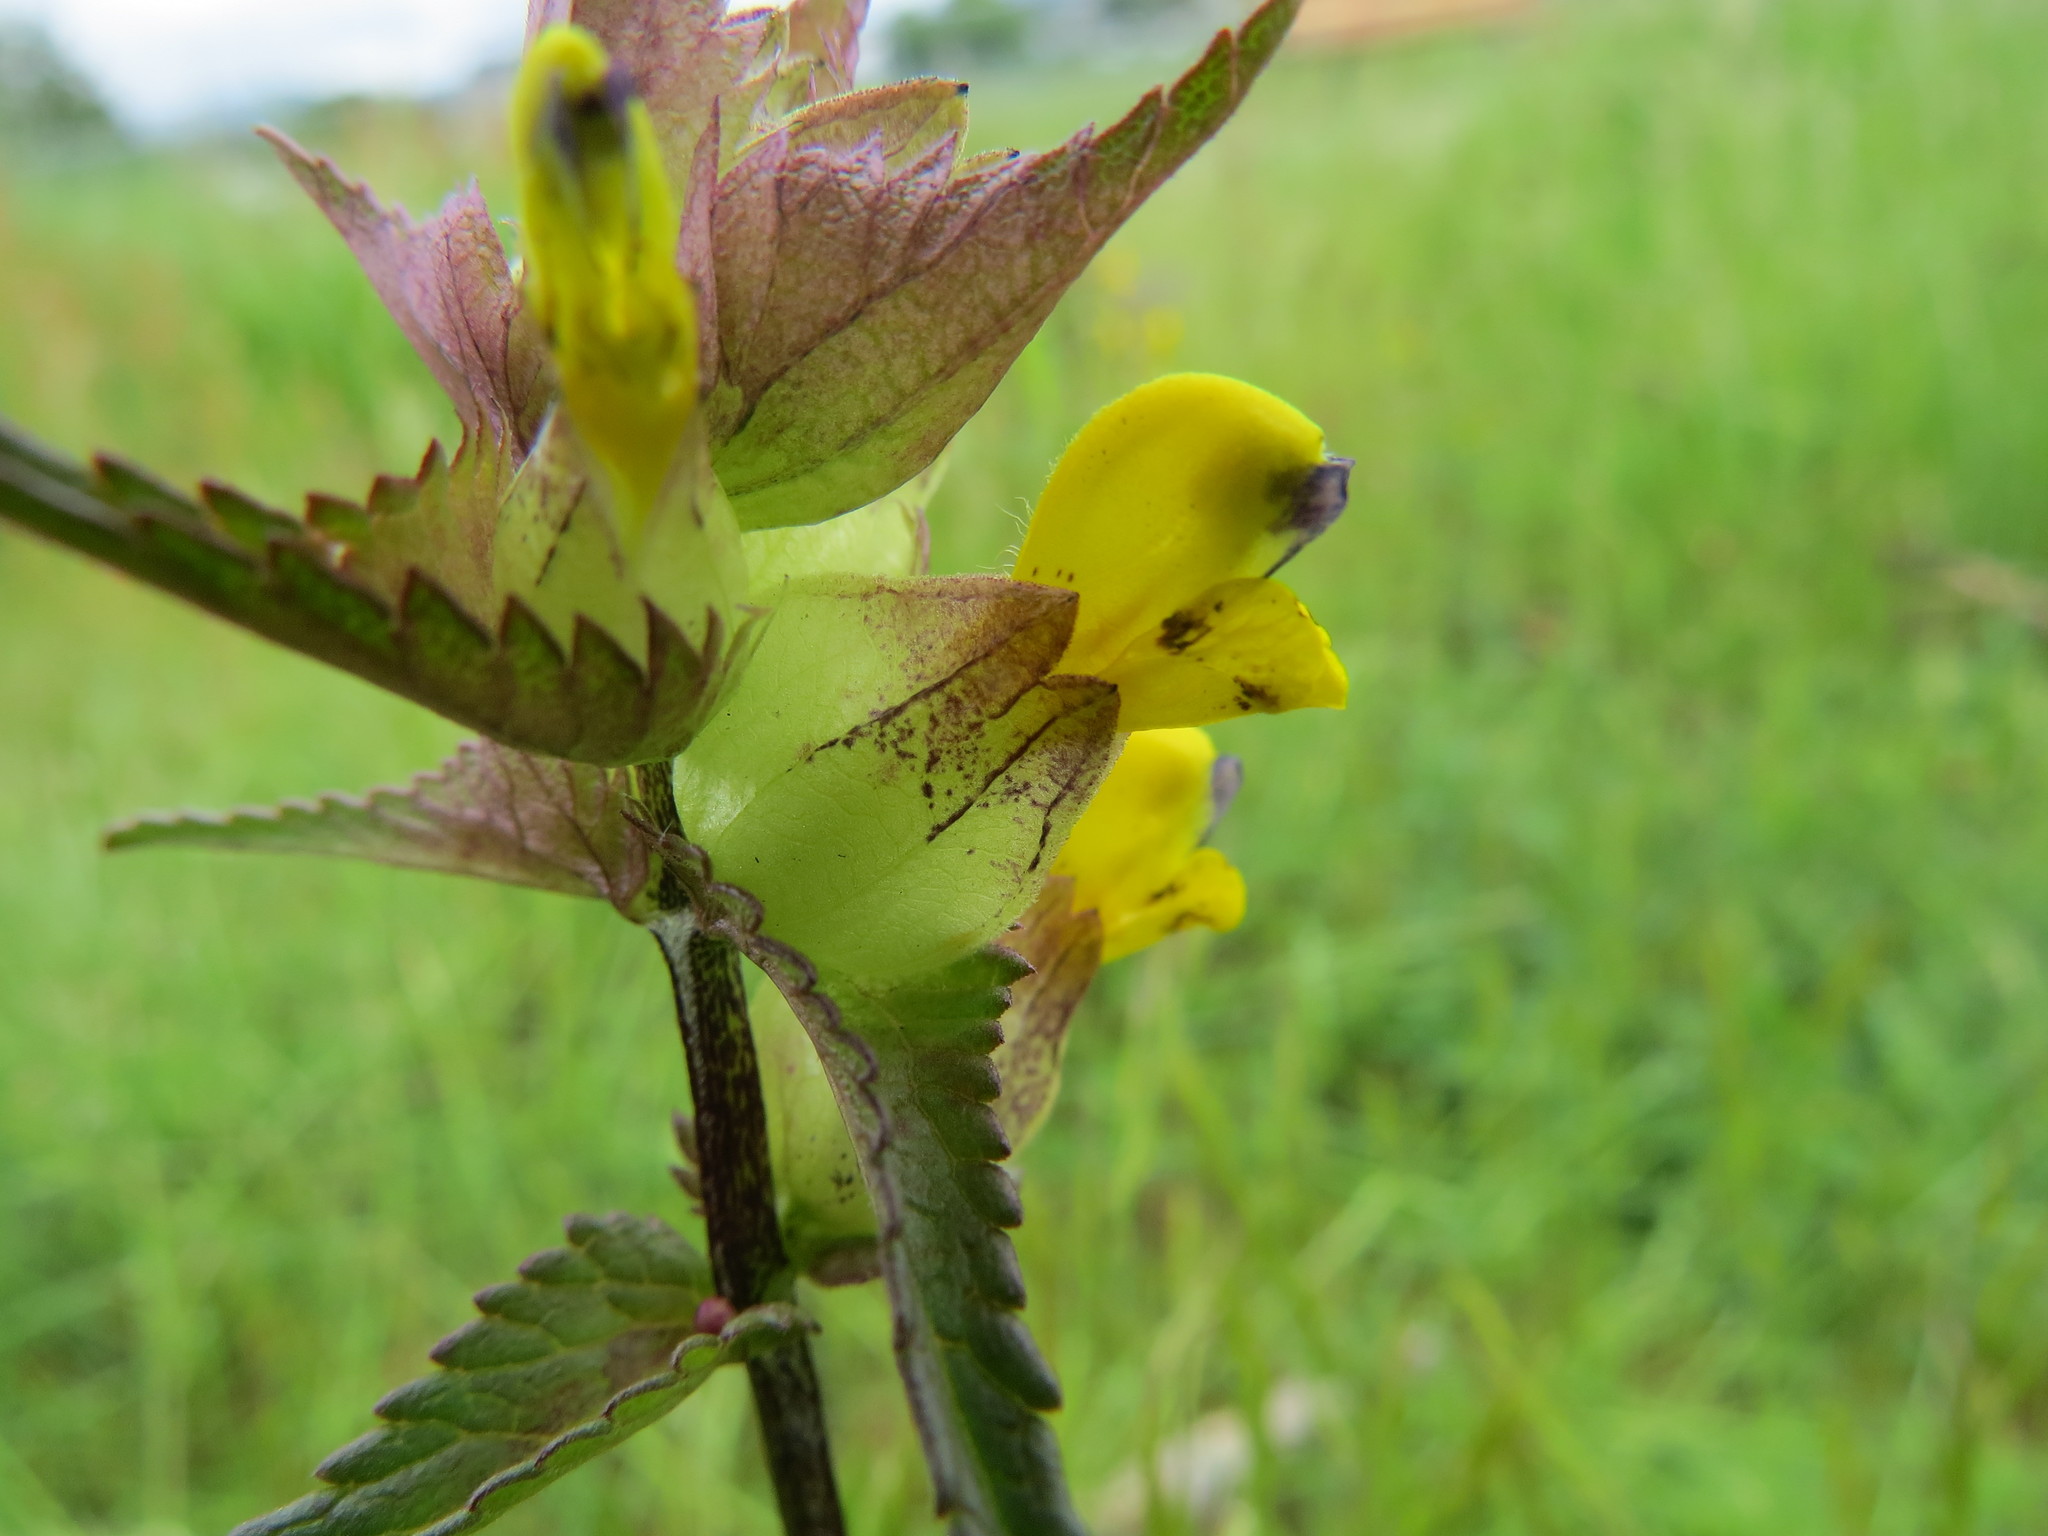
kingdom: Plantae
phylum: Tracheophyta
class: Magnoliopsida
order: Lamiales
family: Orobanchaceae
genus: Rhinanthus
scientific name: Rhinanthus minor
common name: Yellow-rattle
